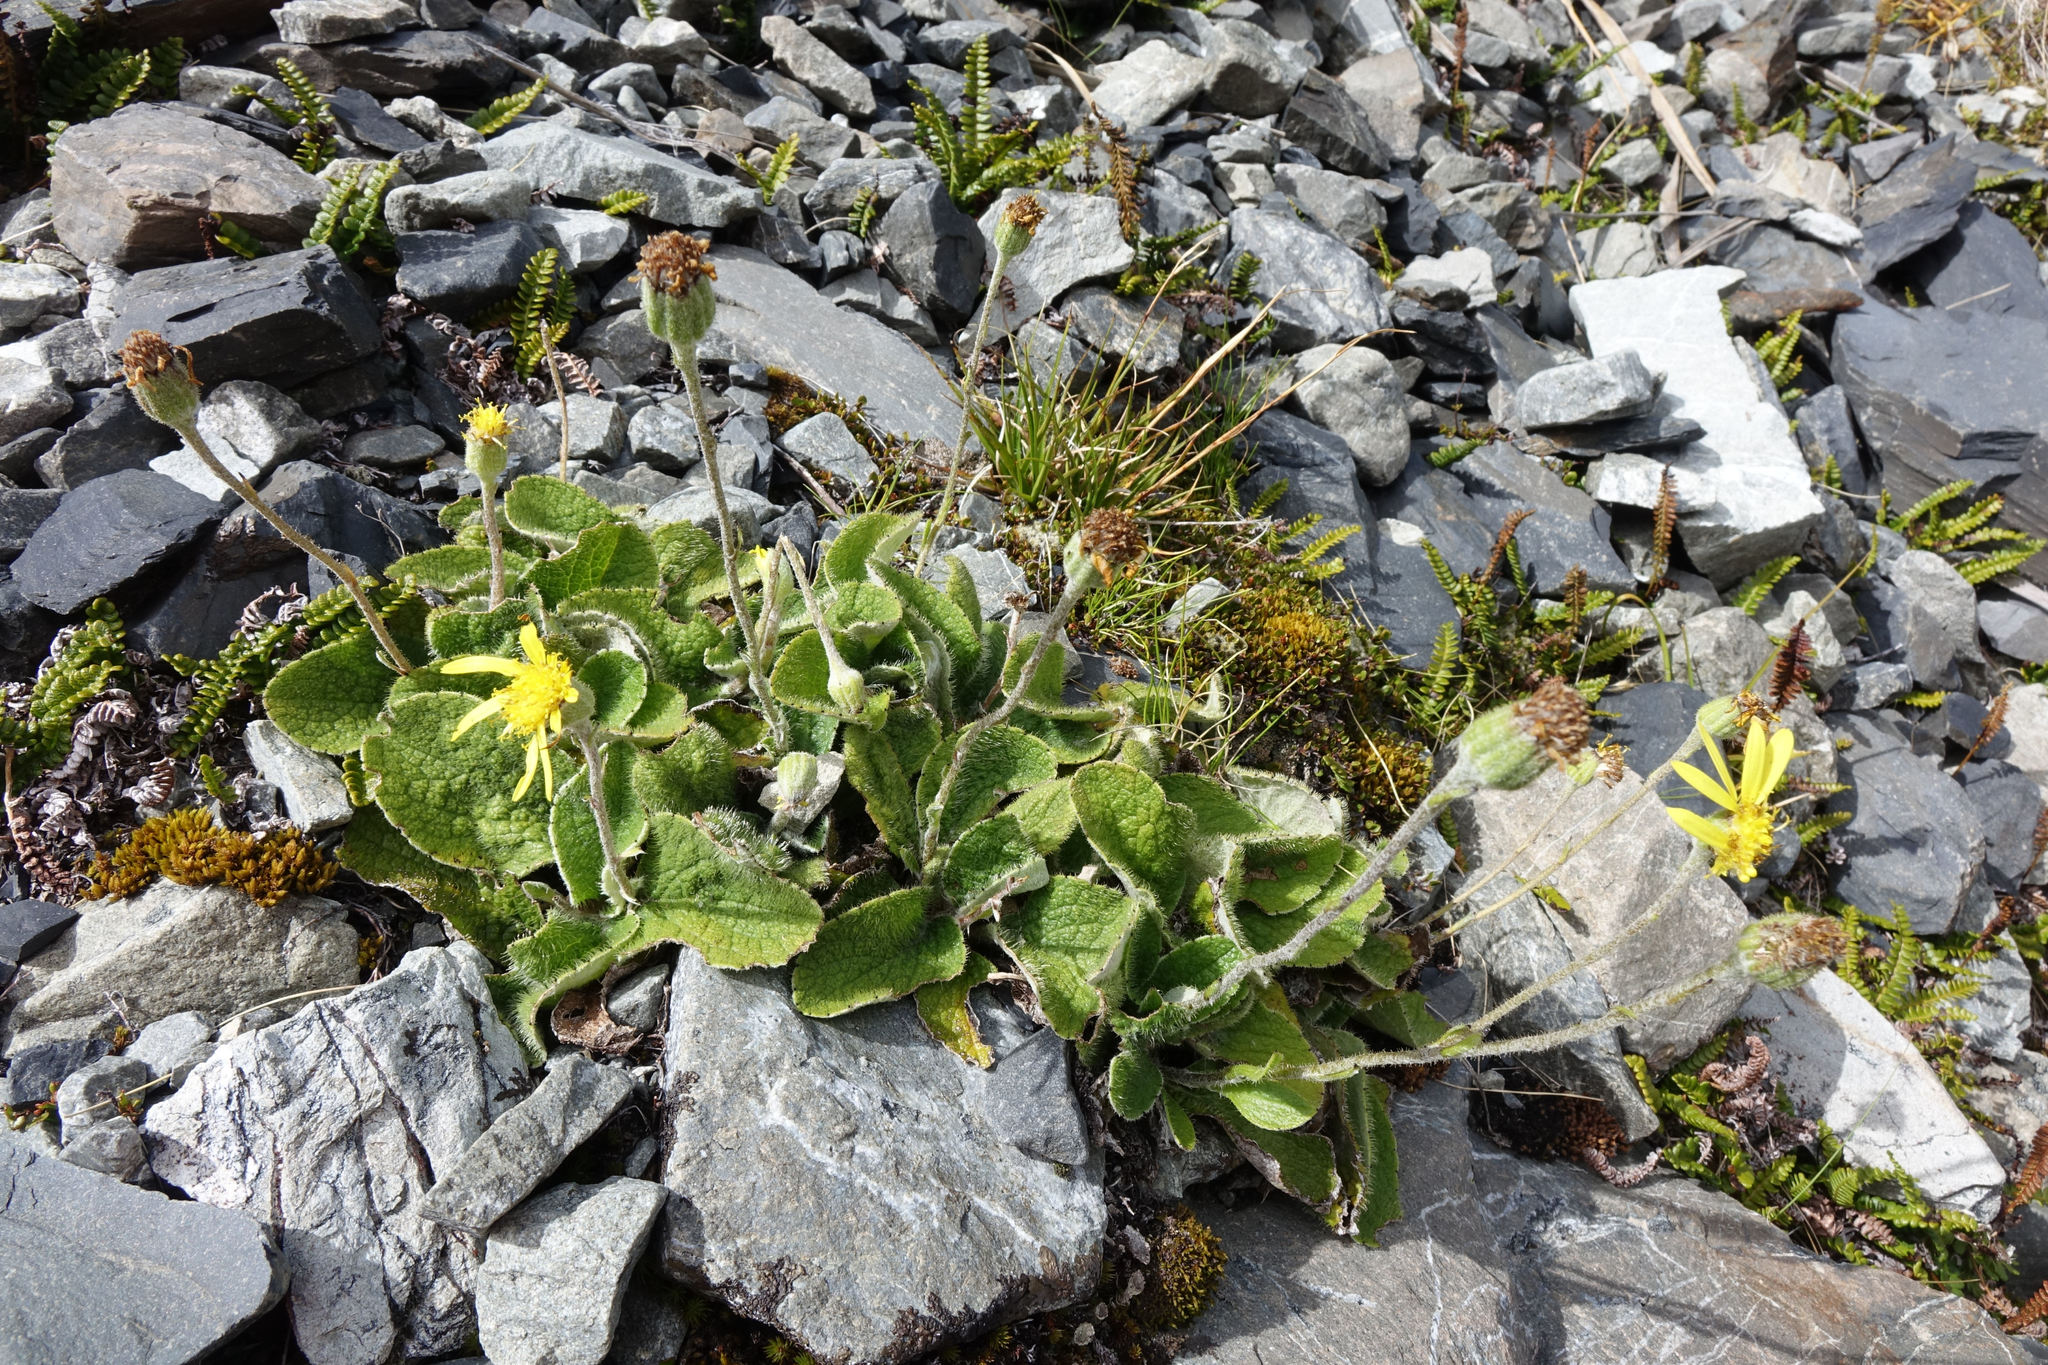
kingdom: Plantae
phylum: Tracheophyta
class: Magnoliopsida
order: Asterales
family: Asteraceae
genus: Brachyglottis
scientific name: Brachyglottis lagopus
